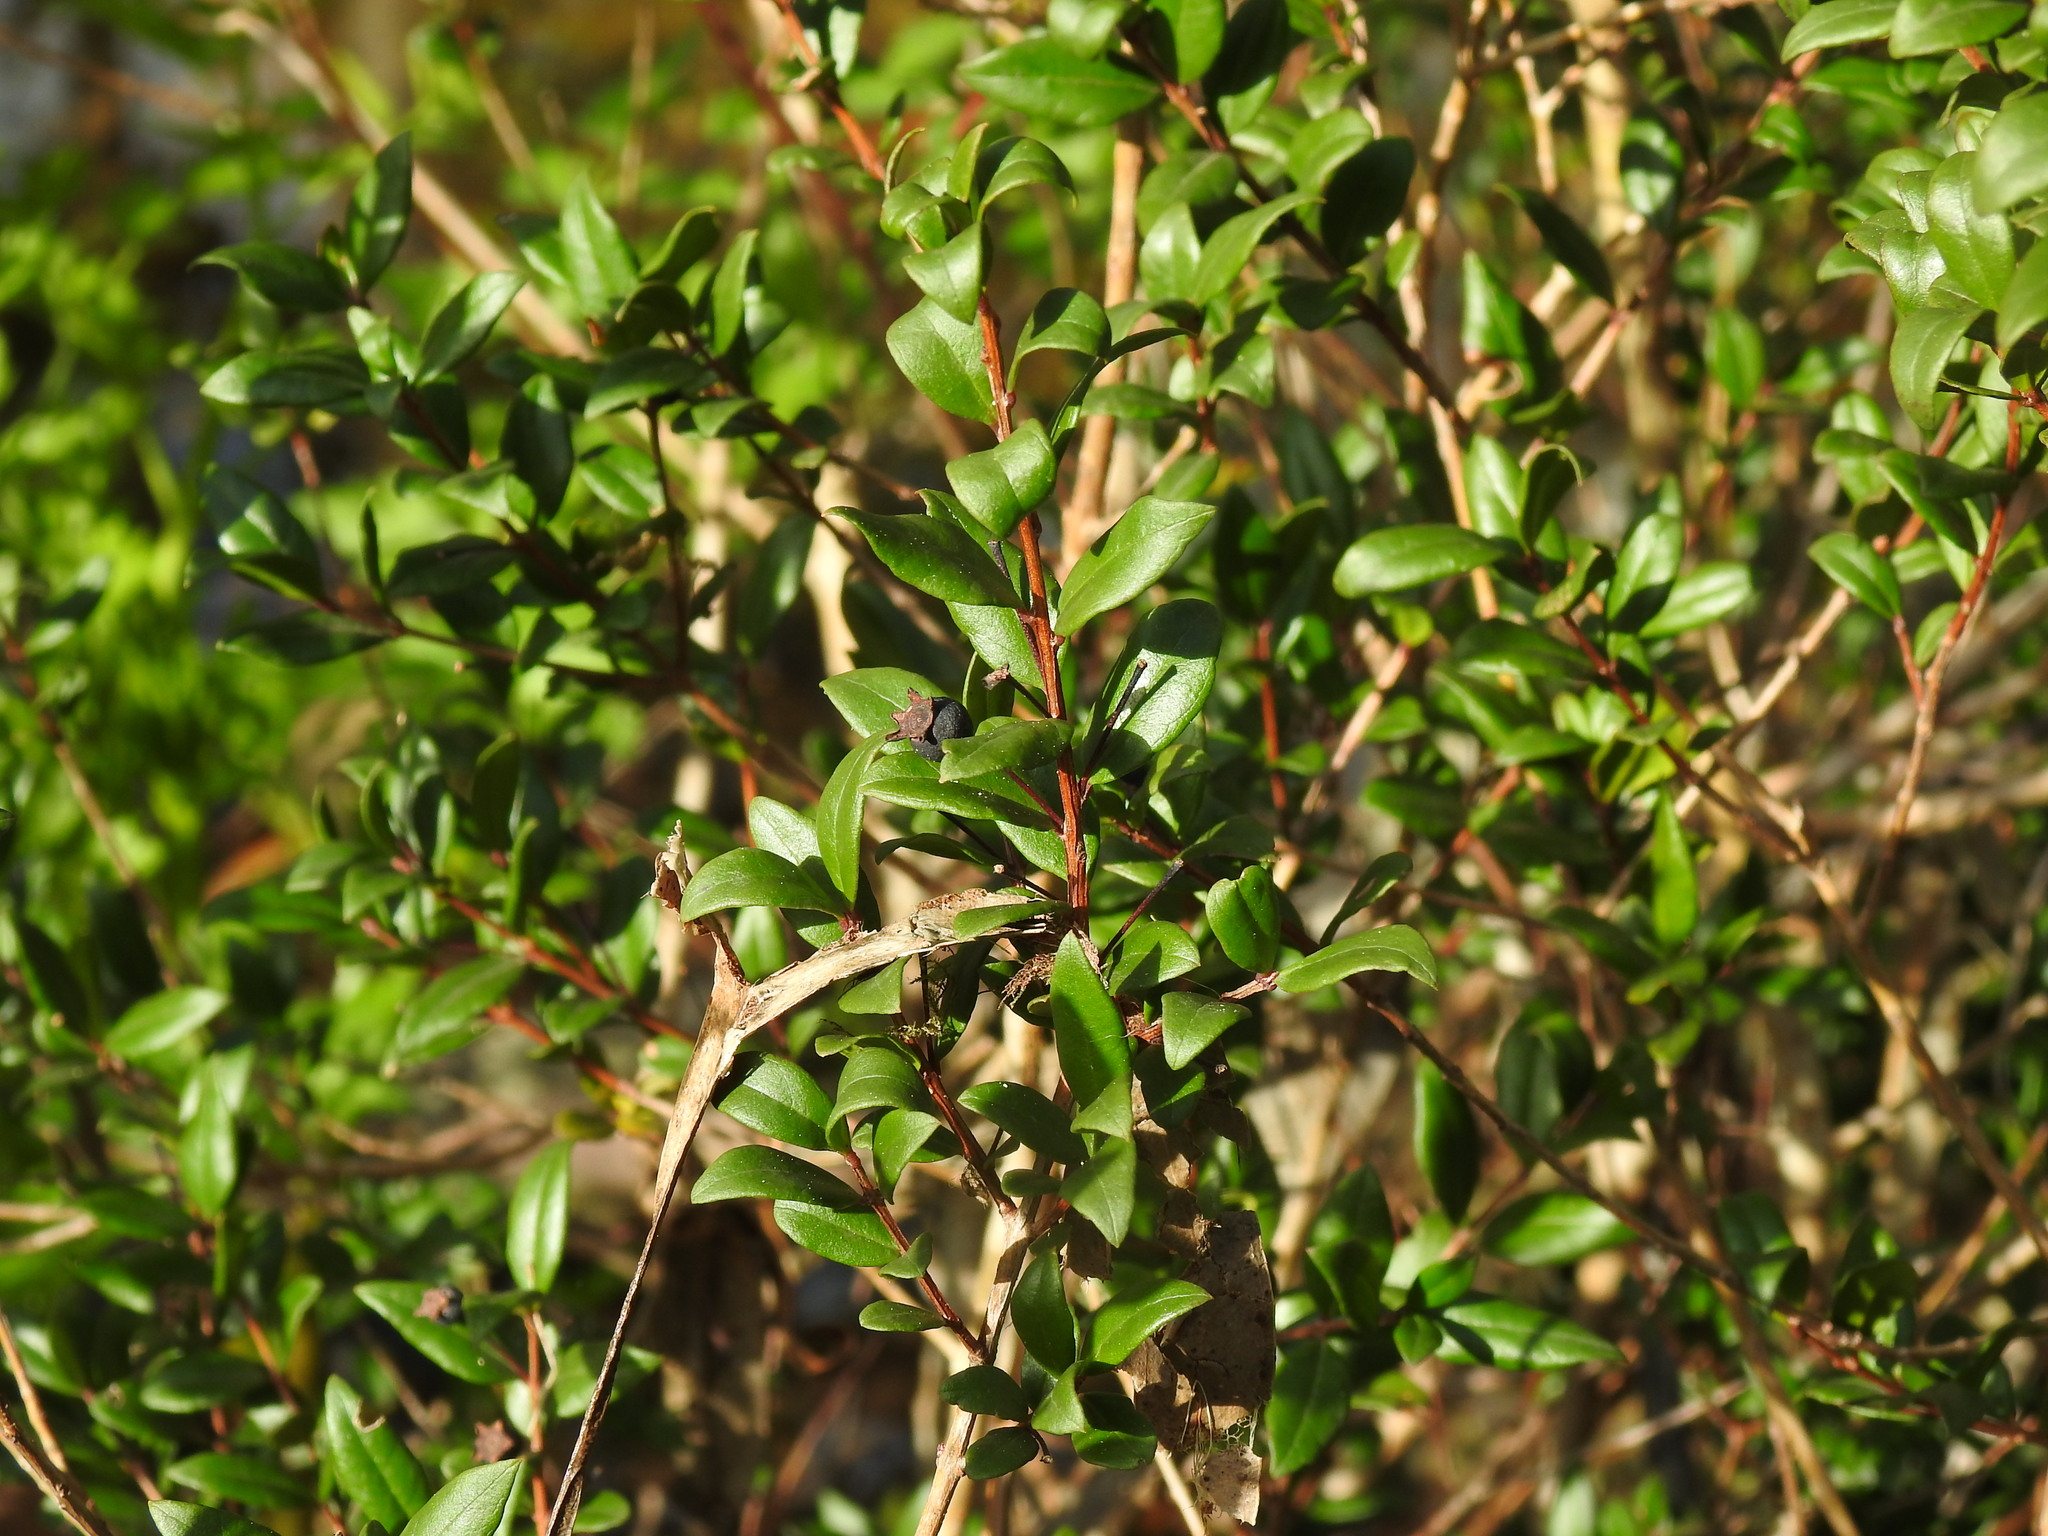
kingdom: Plantae
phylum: Tracheophyta
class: Magnoliopsida
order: Myrtales
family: Myrtaceae
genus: Myrtus
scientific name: Myrtus communis
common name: Myrtle
